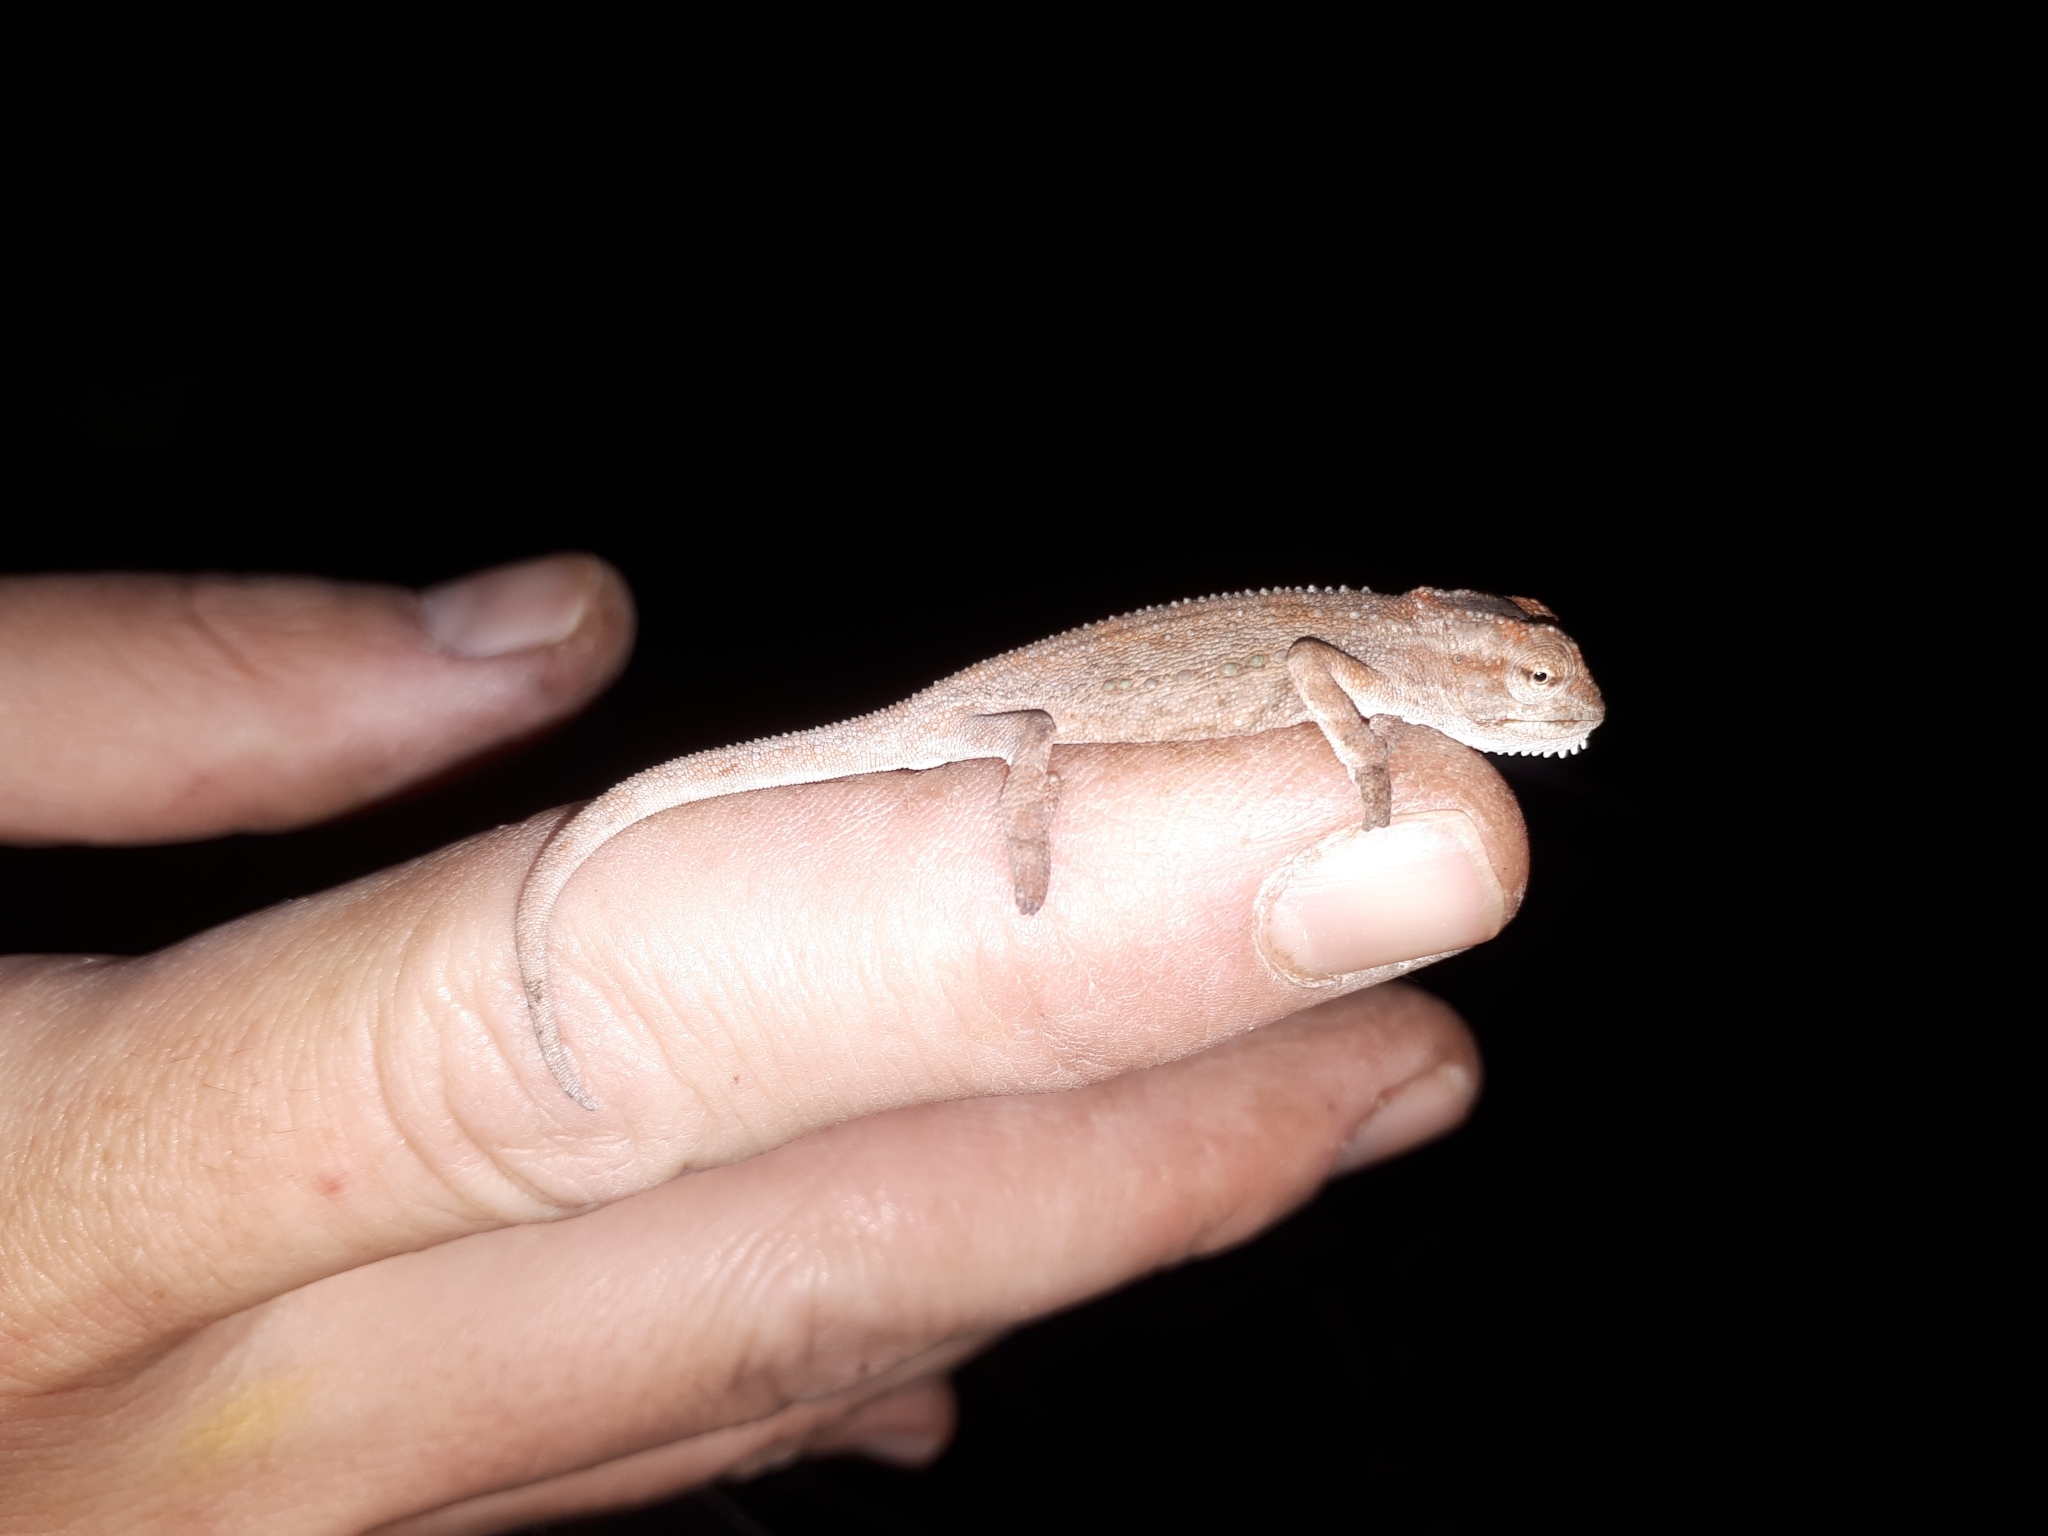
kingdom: Animalia
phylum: Chordata
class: Squamata
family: Chamaeleonidae
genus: Bradypodion
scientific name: Bradypodion pumilum
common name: Cape dwarf chameleon
